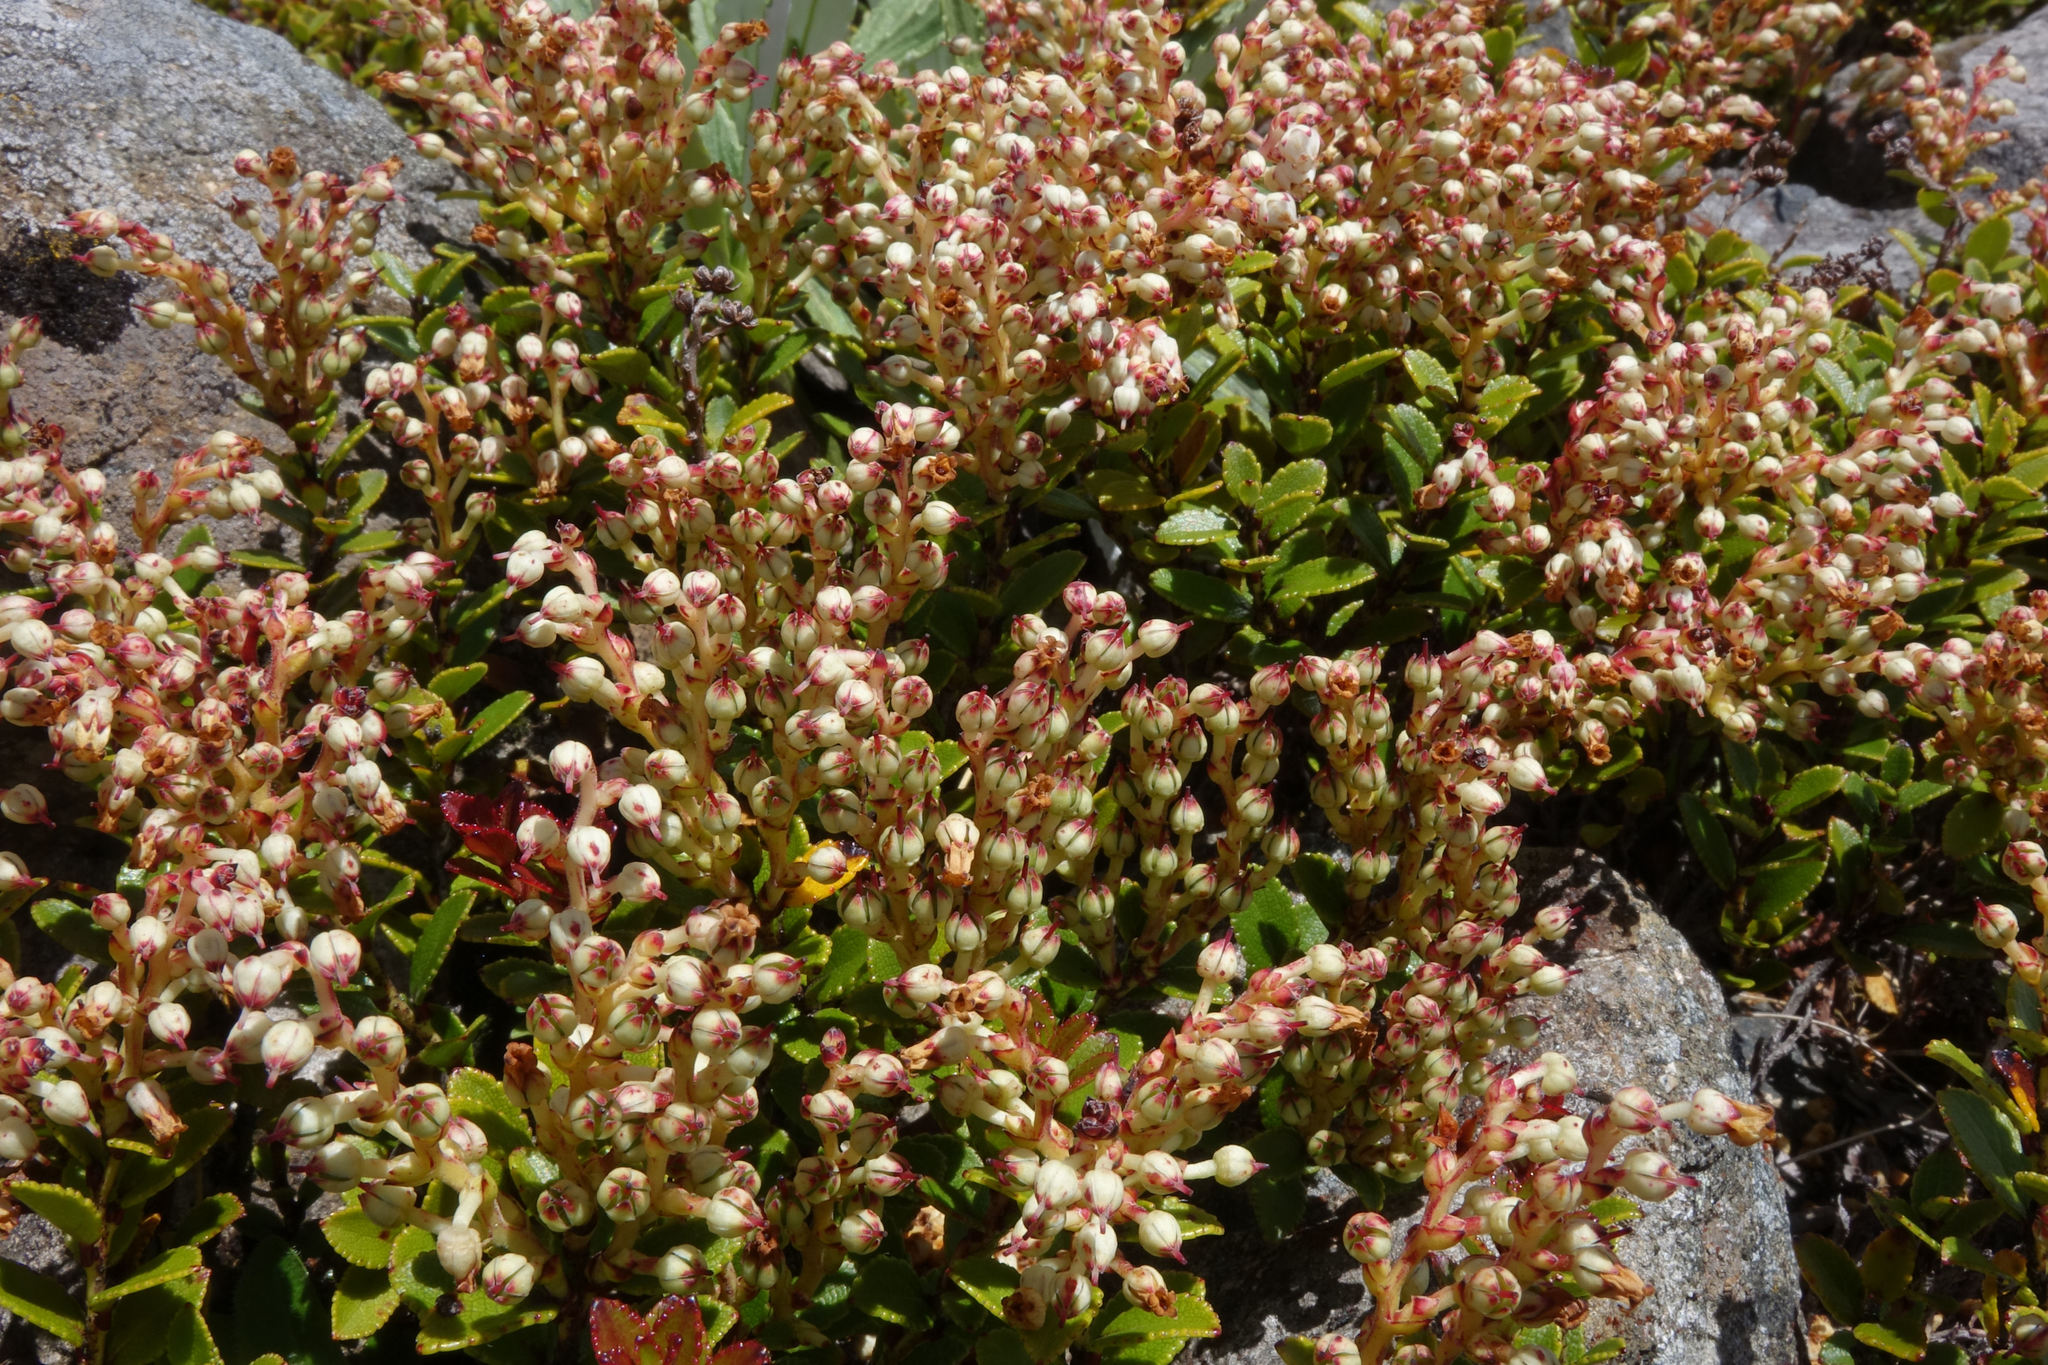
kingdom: Plantae
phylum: Tracheophyta
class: Magnoliopsida
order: Ericales
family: Ericaceae
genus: Gaultheria
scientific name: Gaultheria crassa
